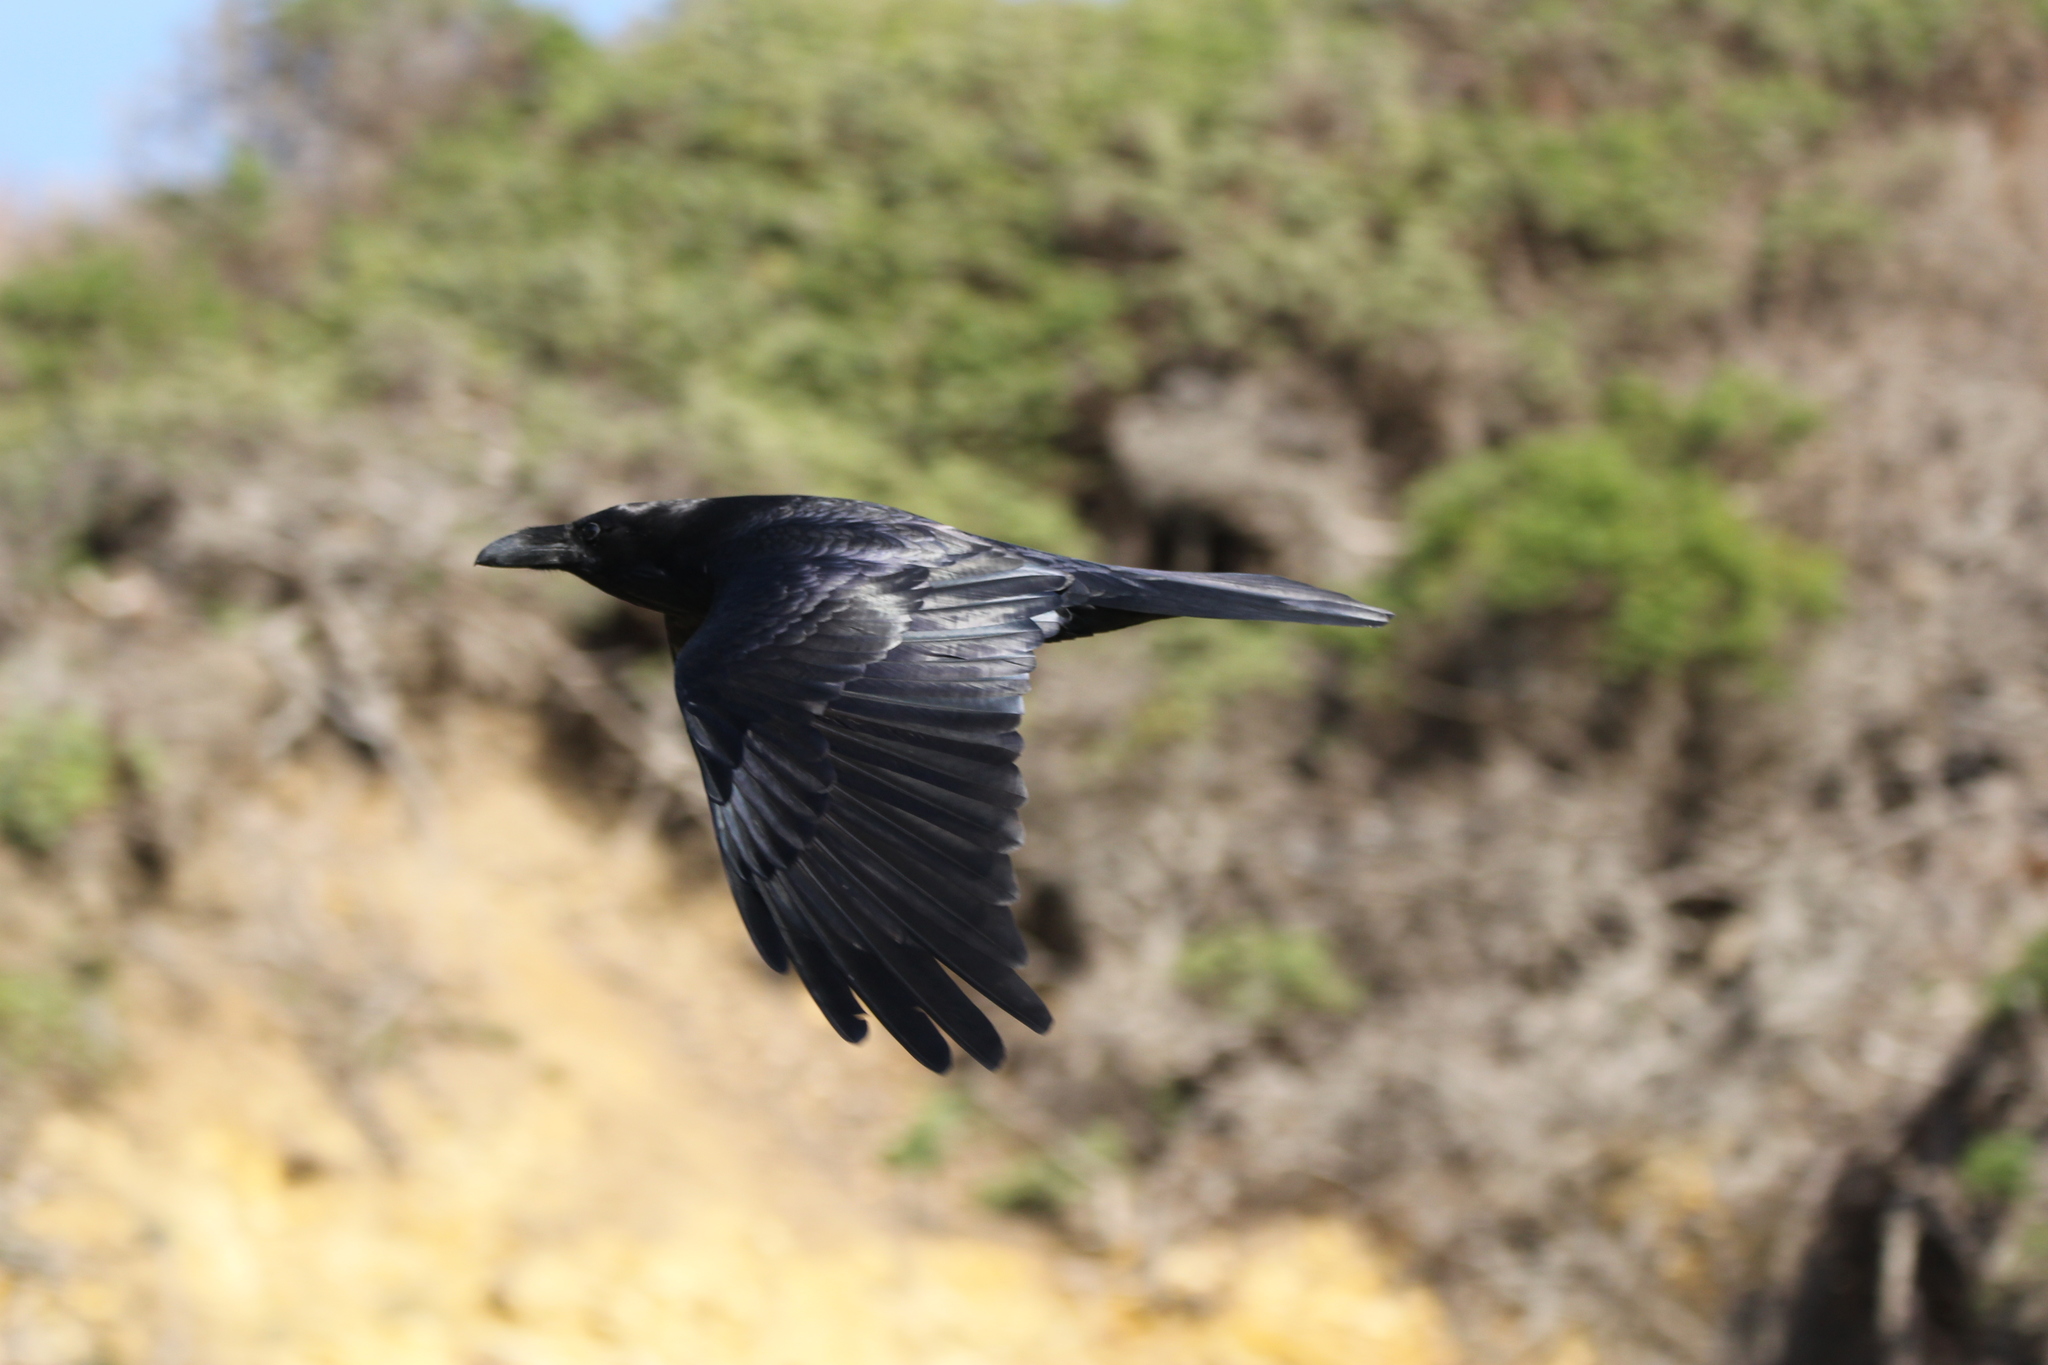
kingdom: Animalia
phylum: Chordata
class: Aves
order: Passeriformes
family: Corvidae
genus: Corvus
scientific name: Corvus corax
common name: Common raven
